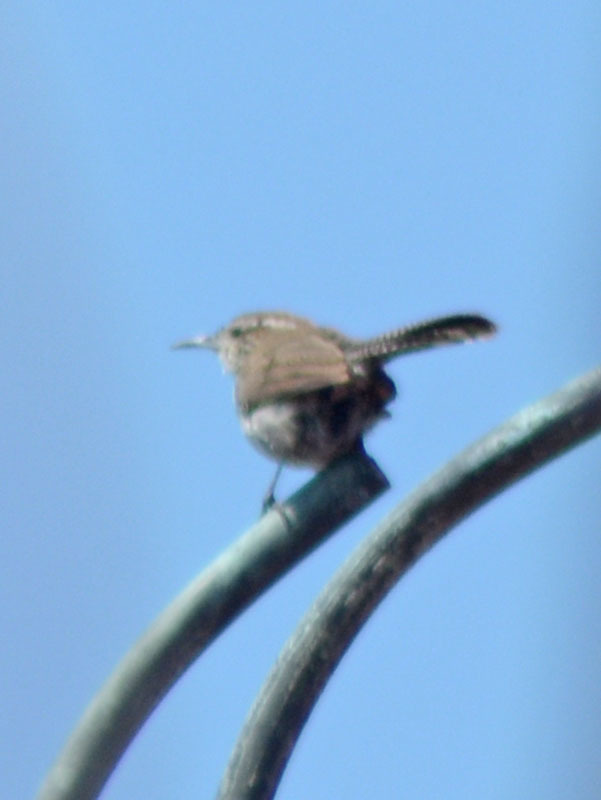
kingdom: Animalia
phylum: Chordata
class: Aves
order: Passeriformes
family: Troglodytidae
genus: Thryomanes
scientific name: Thryomanes bewickii
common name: Bewick's wren
